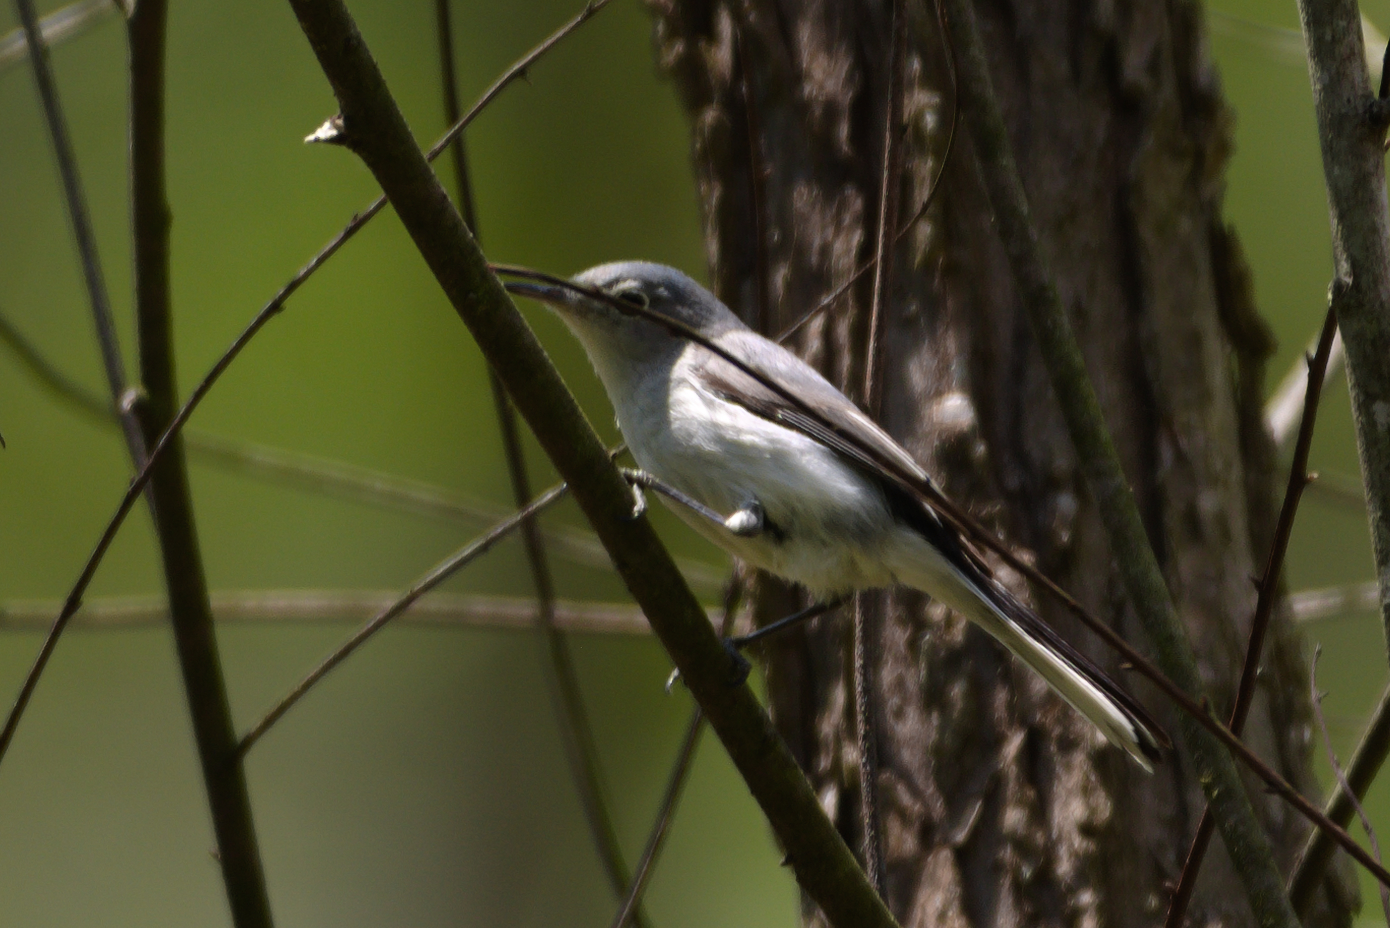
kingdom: Animalia
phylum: Chordata
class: Aves
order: Passeriformes
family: Polioptilidae
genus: Polioptila
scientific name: Polioptila caerulea
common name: Blue-gray gnatcatcher
